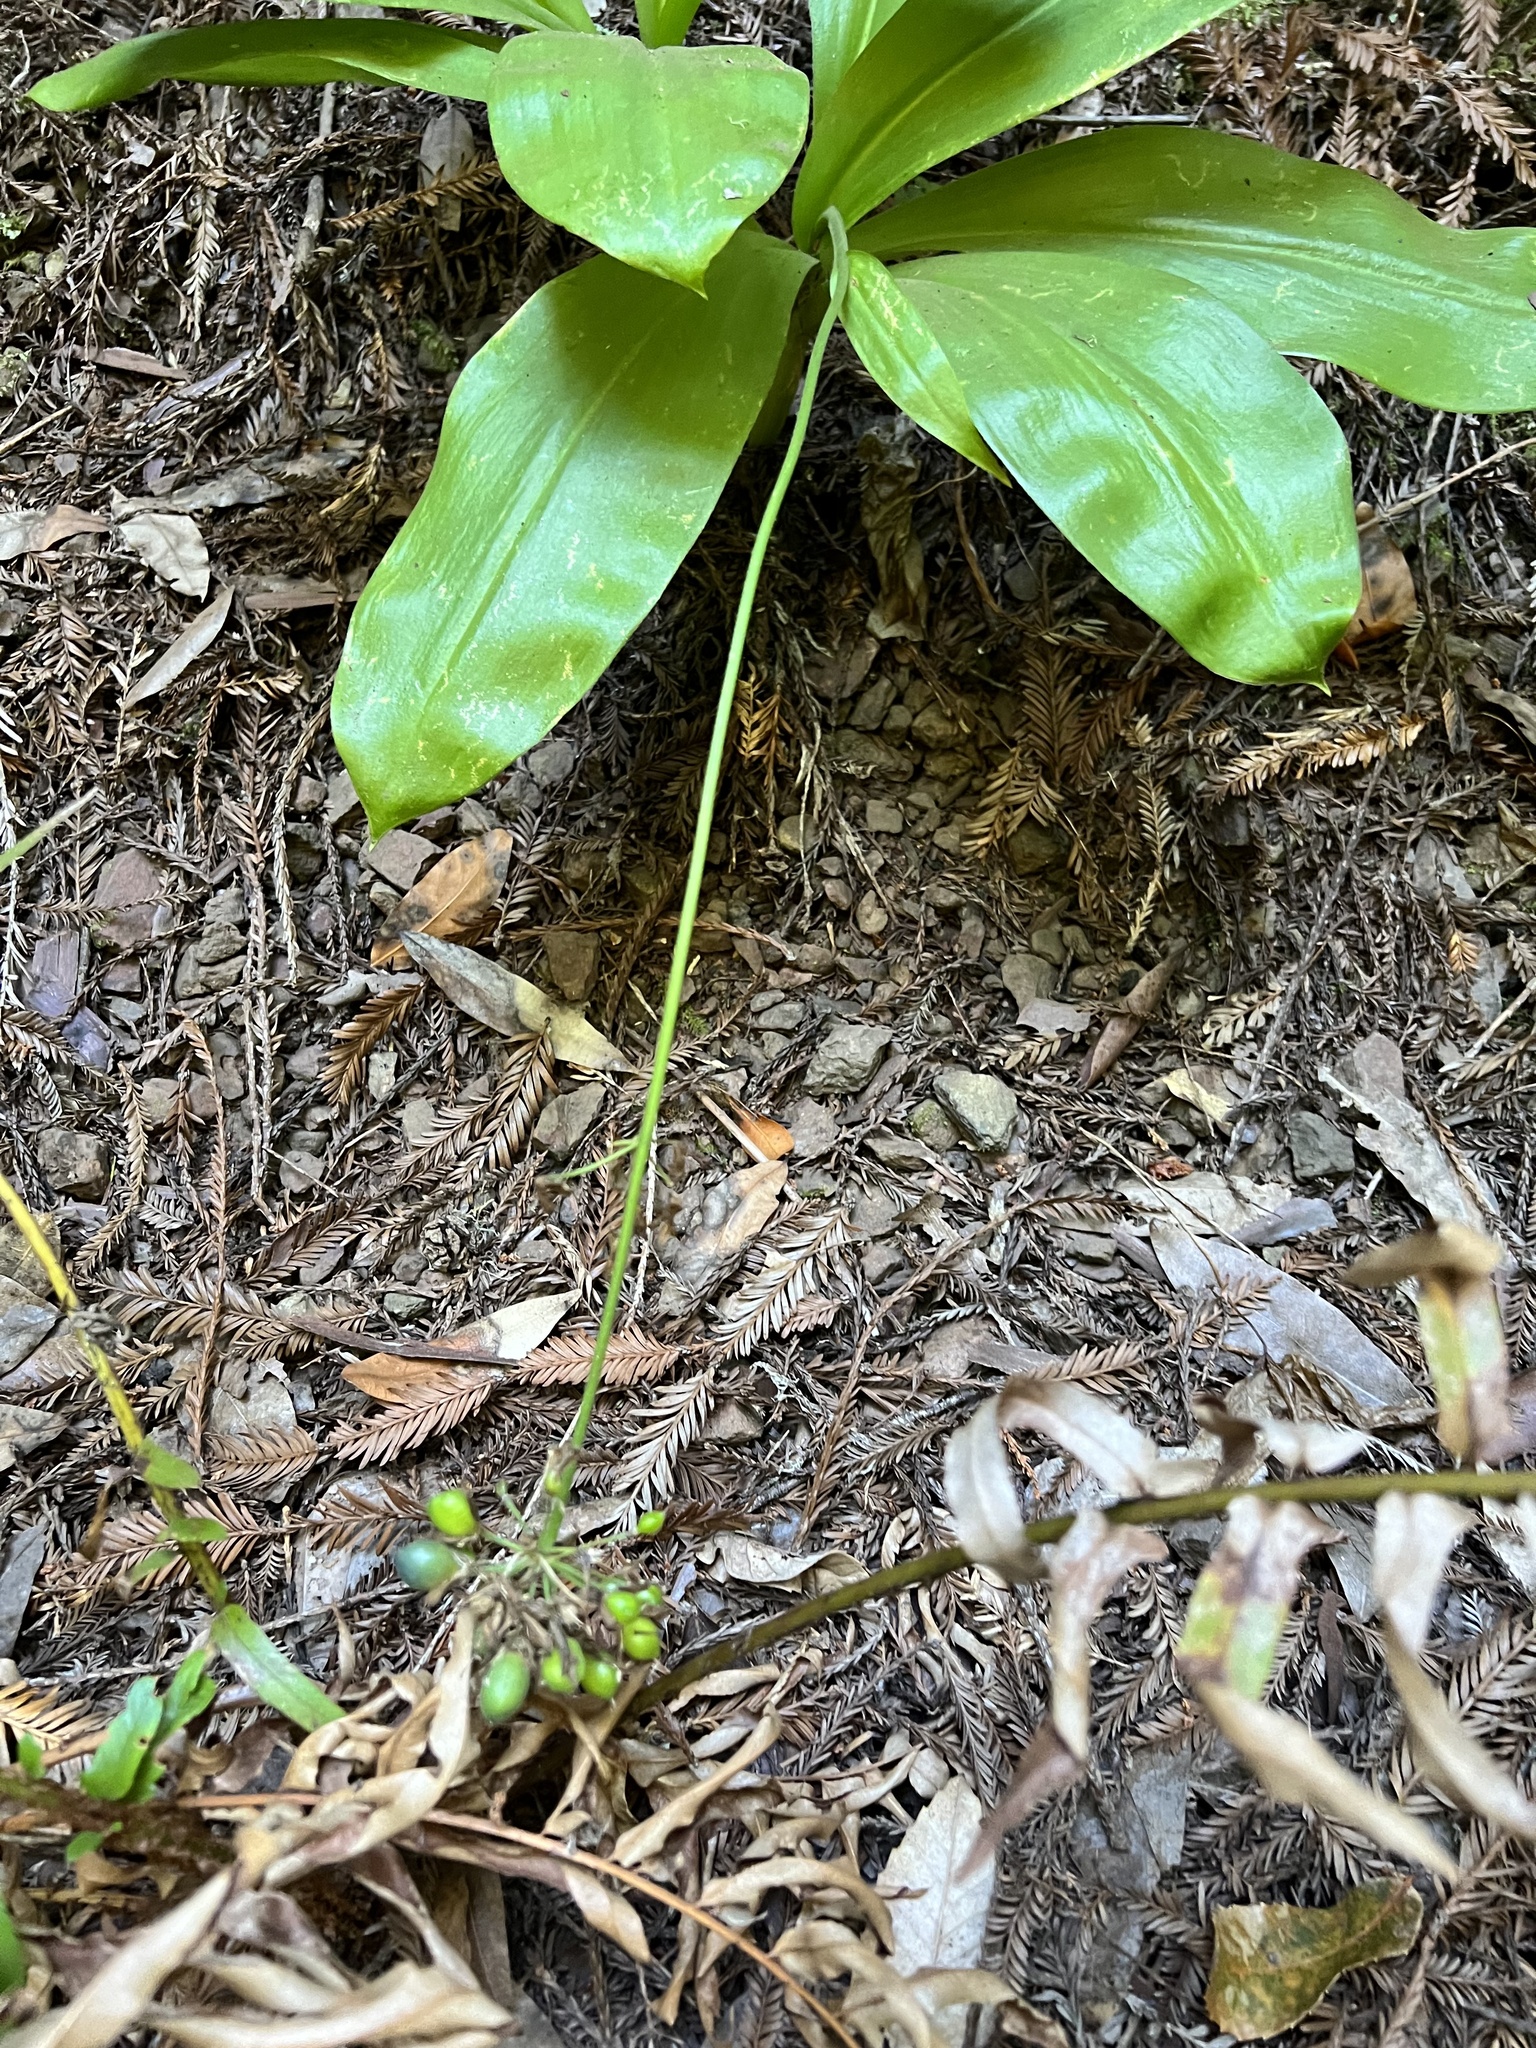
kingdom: Plantae
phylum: Tracheophyta
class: Liliopsida
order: Liliales
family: Liliaceae
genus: Clintonia
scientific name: Clintonia andrewsiana
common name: Red clintonia
